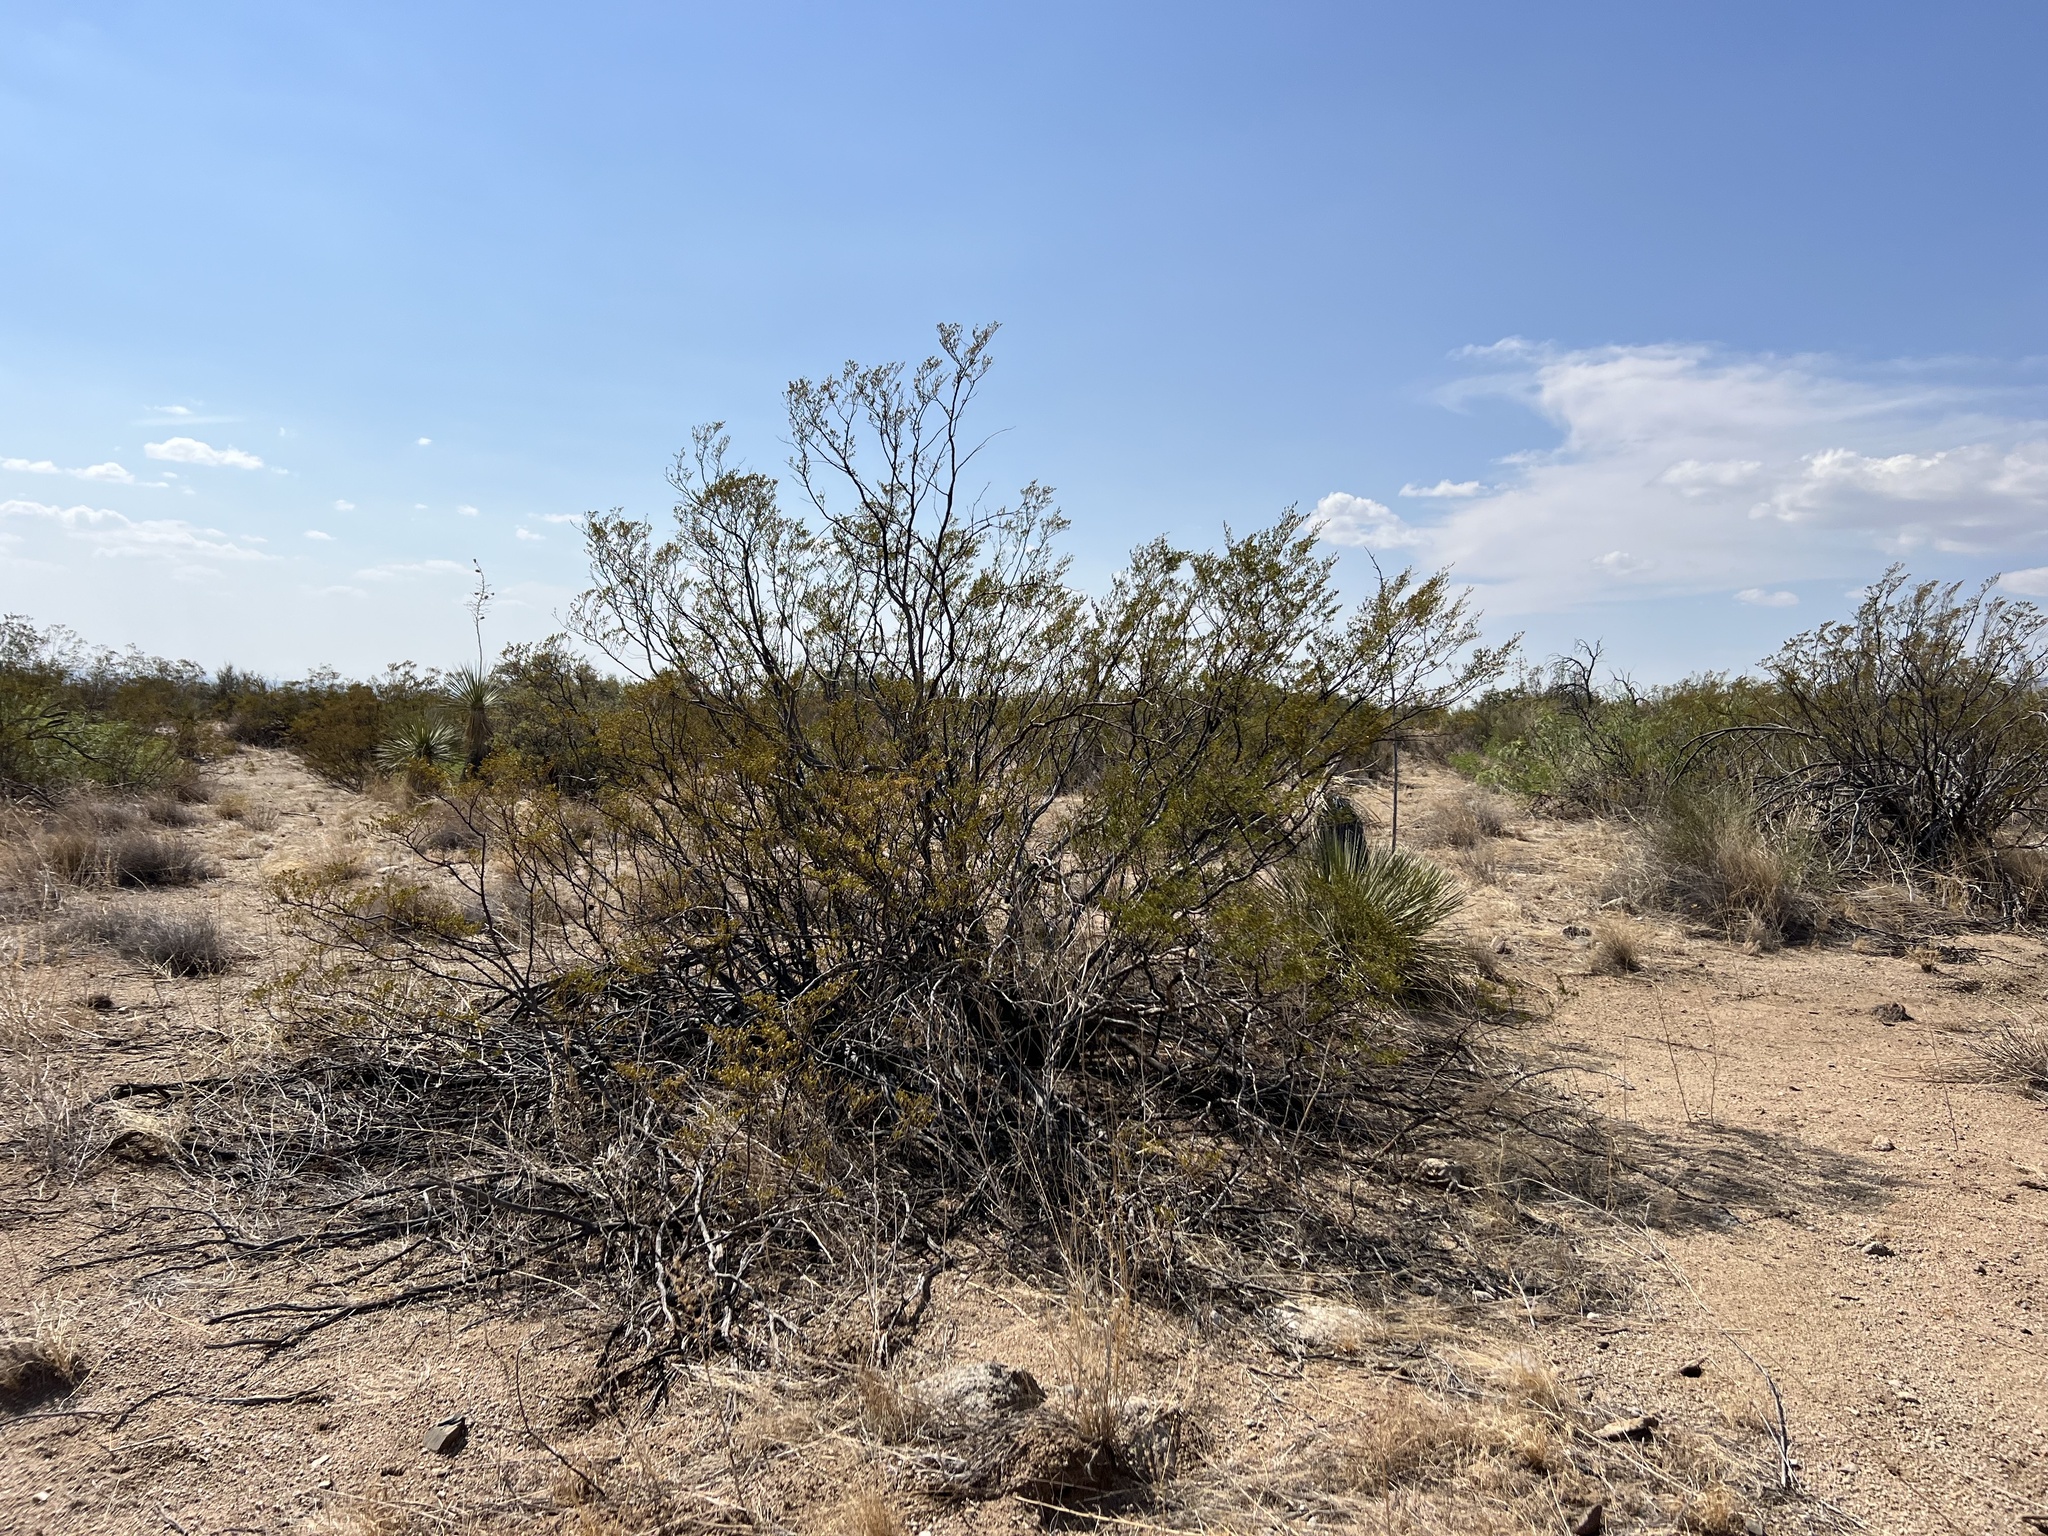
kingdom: Plantae
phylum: Tracheophyta
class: Magnoliopsida
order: Zygophyllales
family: Zygophyllaceae
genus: Larrea
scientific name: Larrea tridentata
